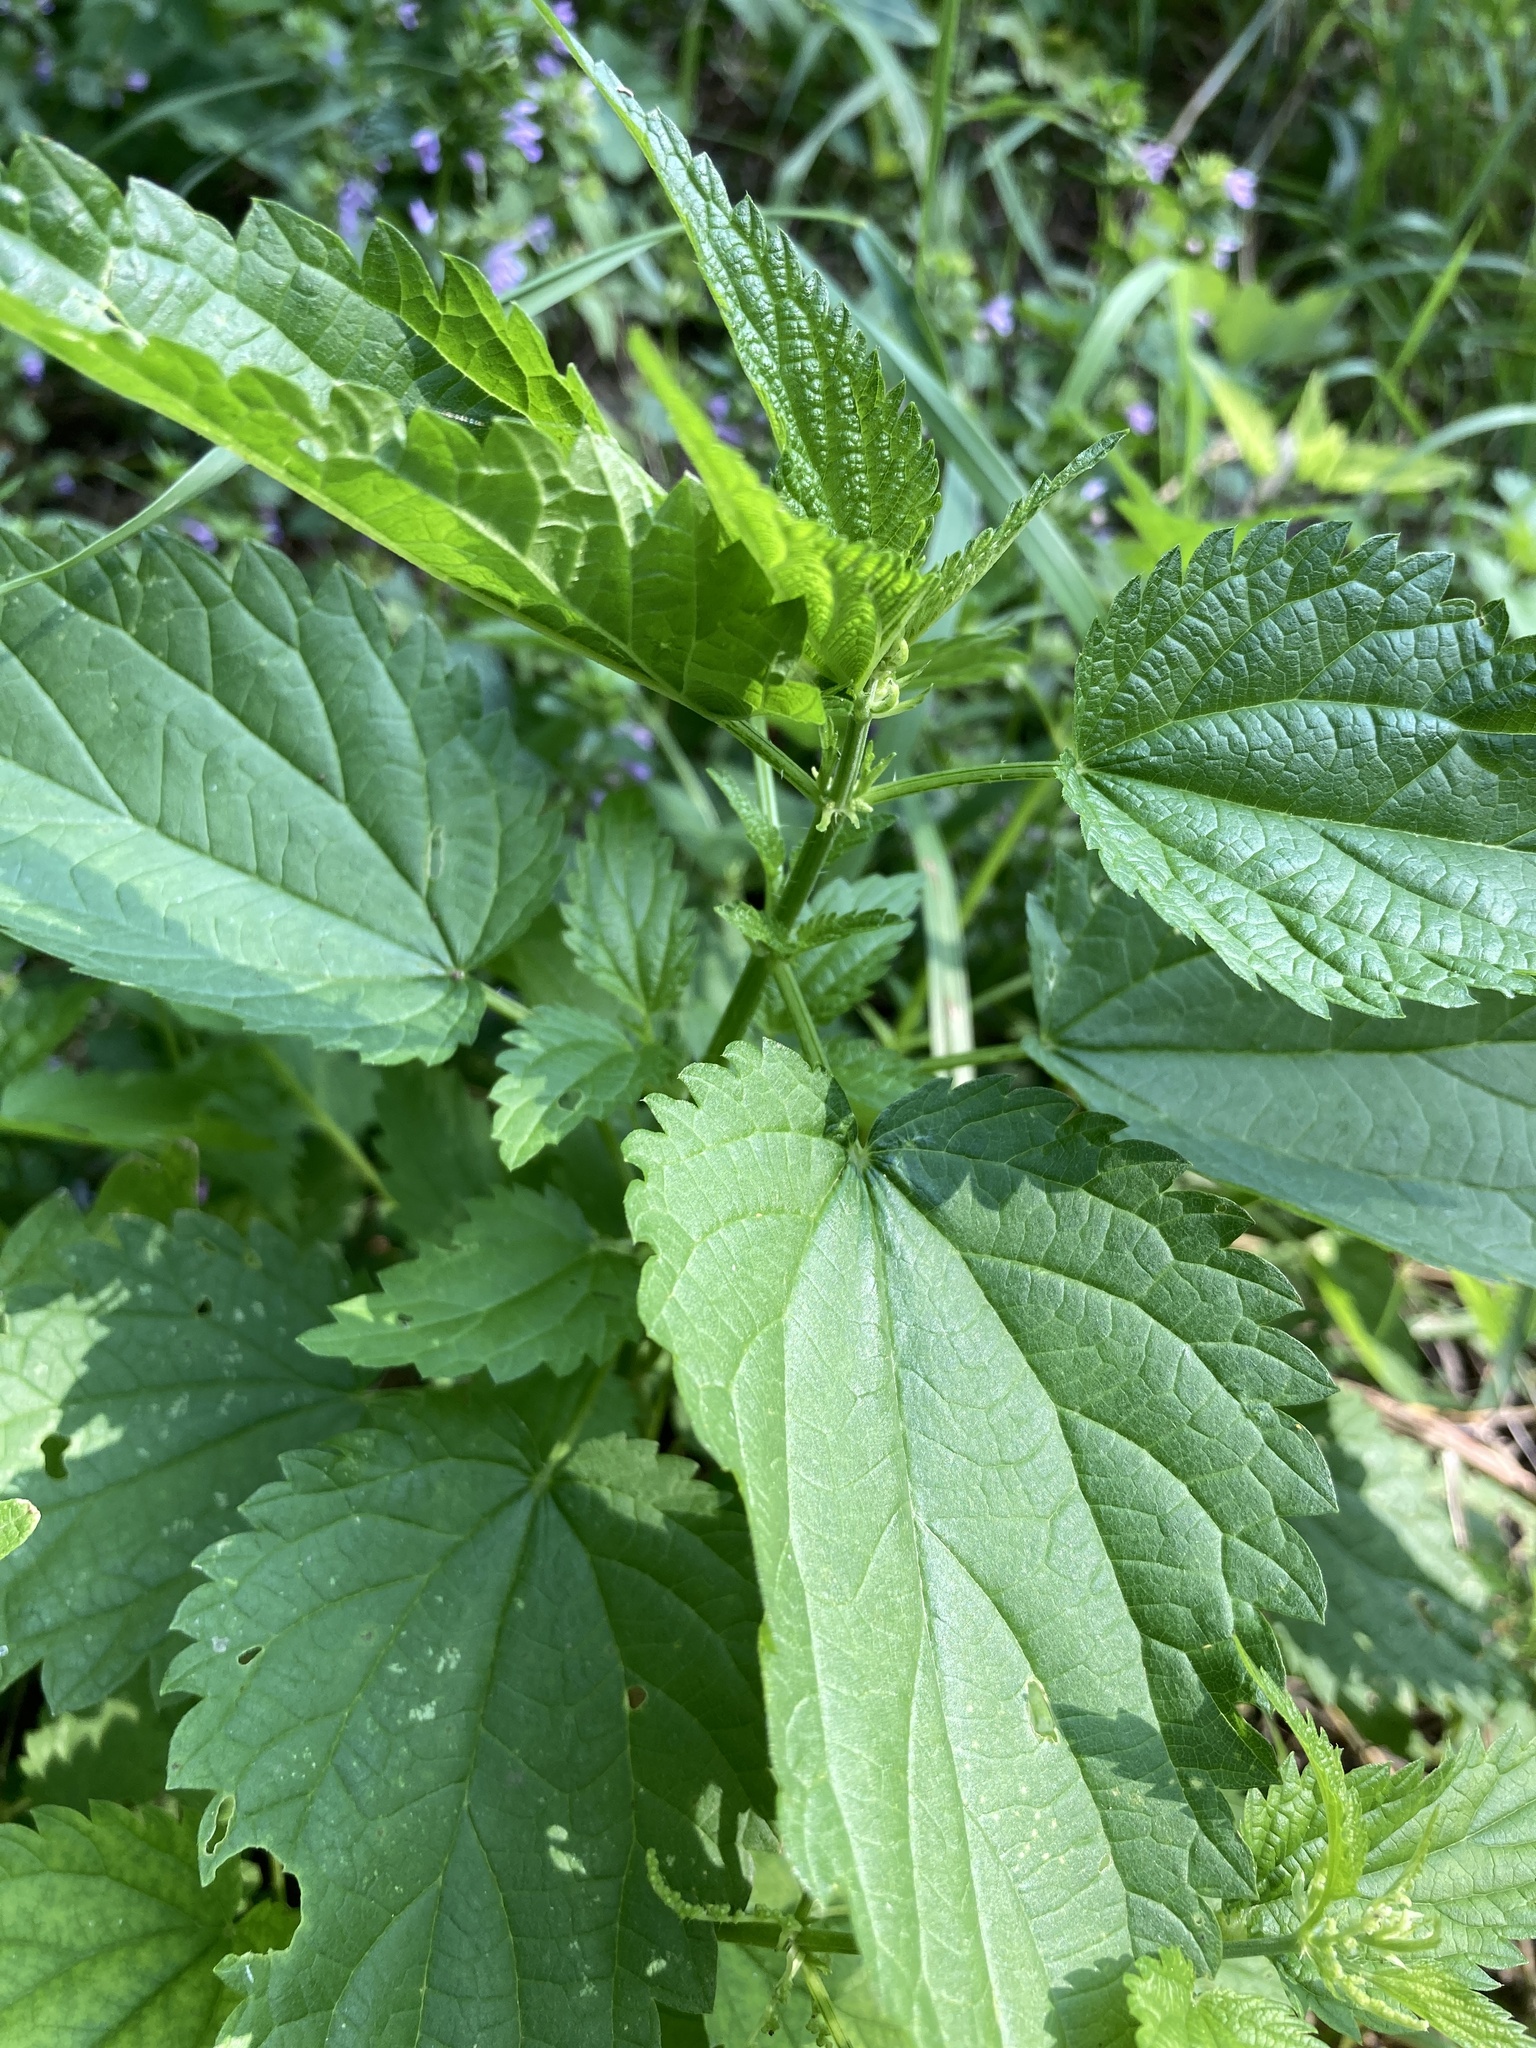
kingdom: Plantae
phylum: Tracheophyta
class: Magnoliopsida
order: Rosales
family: Urticaceae
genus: Urtica
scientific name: Urtica dioica
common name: Common nettle
